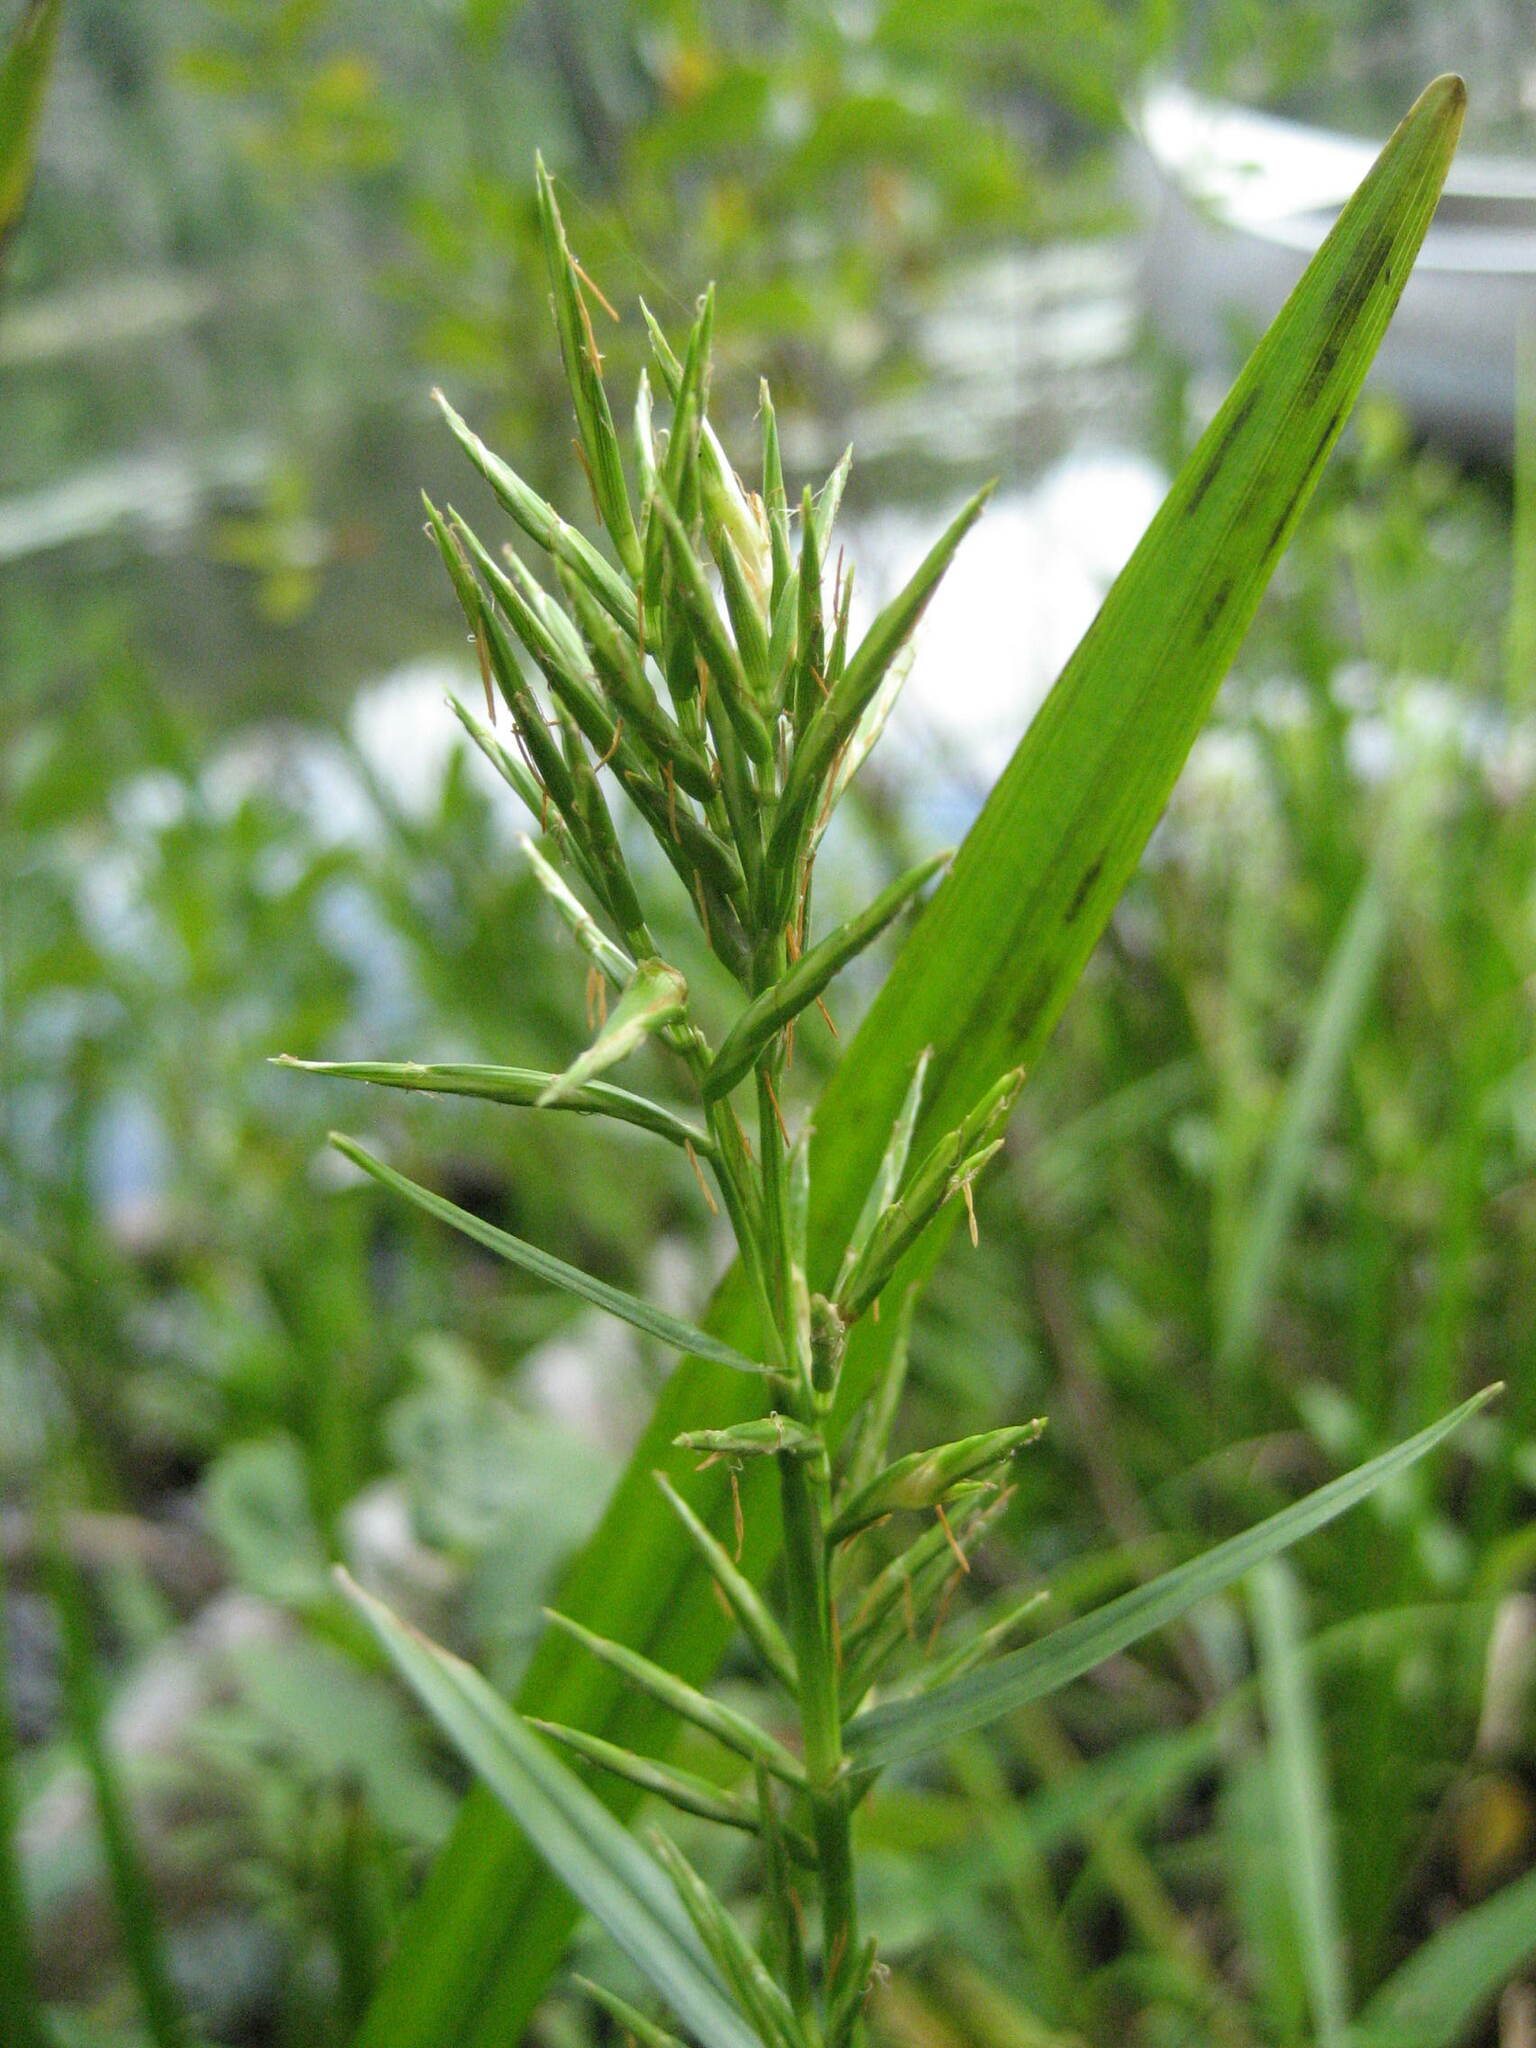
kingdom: Plantae
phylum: Tracheophyta
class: Liliopsida
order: Poales
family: Cyperaceae
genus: Dulichium
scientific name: Dulichium arundinaceum
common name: Three-way sedge
